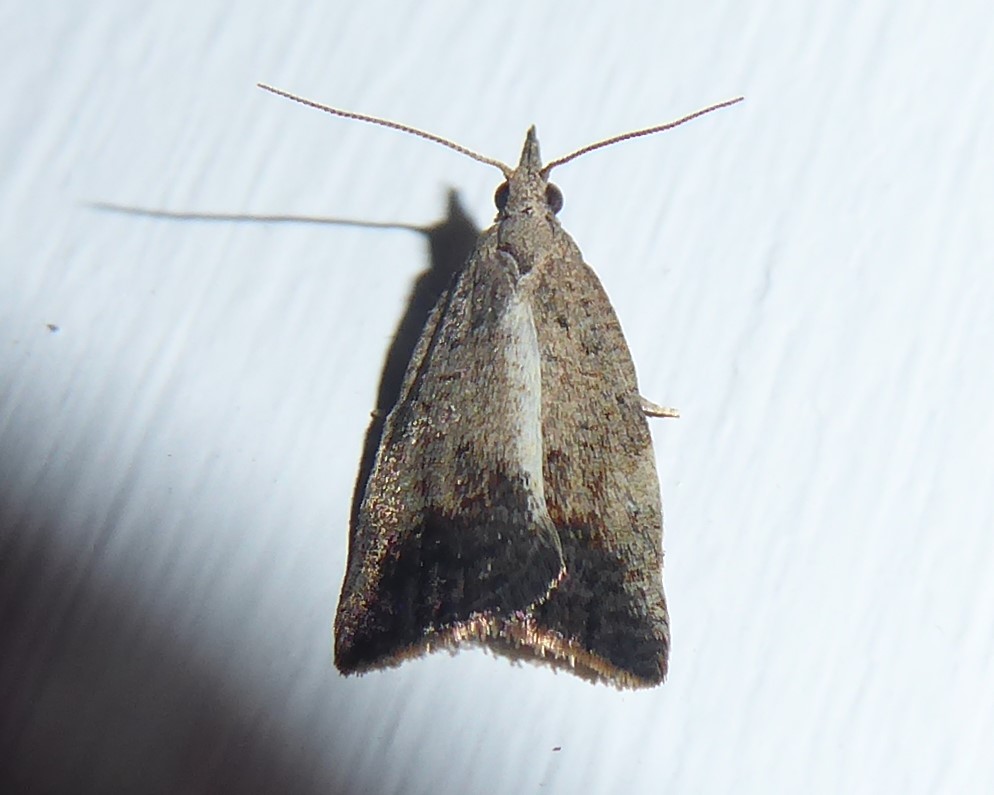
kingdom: Animalia
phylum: Arthropoda
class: Insecta
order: Lepidoptera
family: Tortricidae
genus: Catamacta
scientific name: Catamacta gavisana
